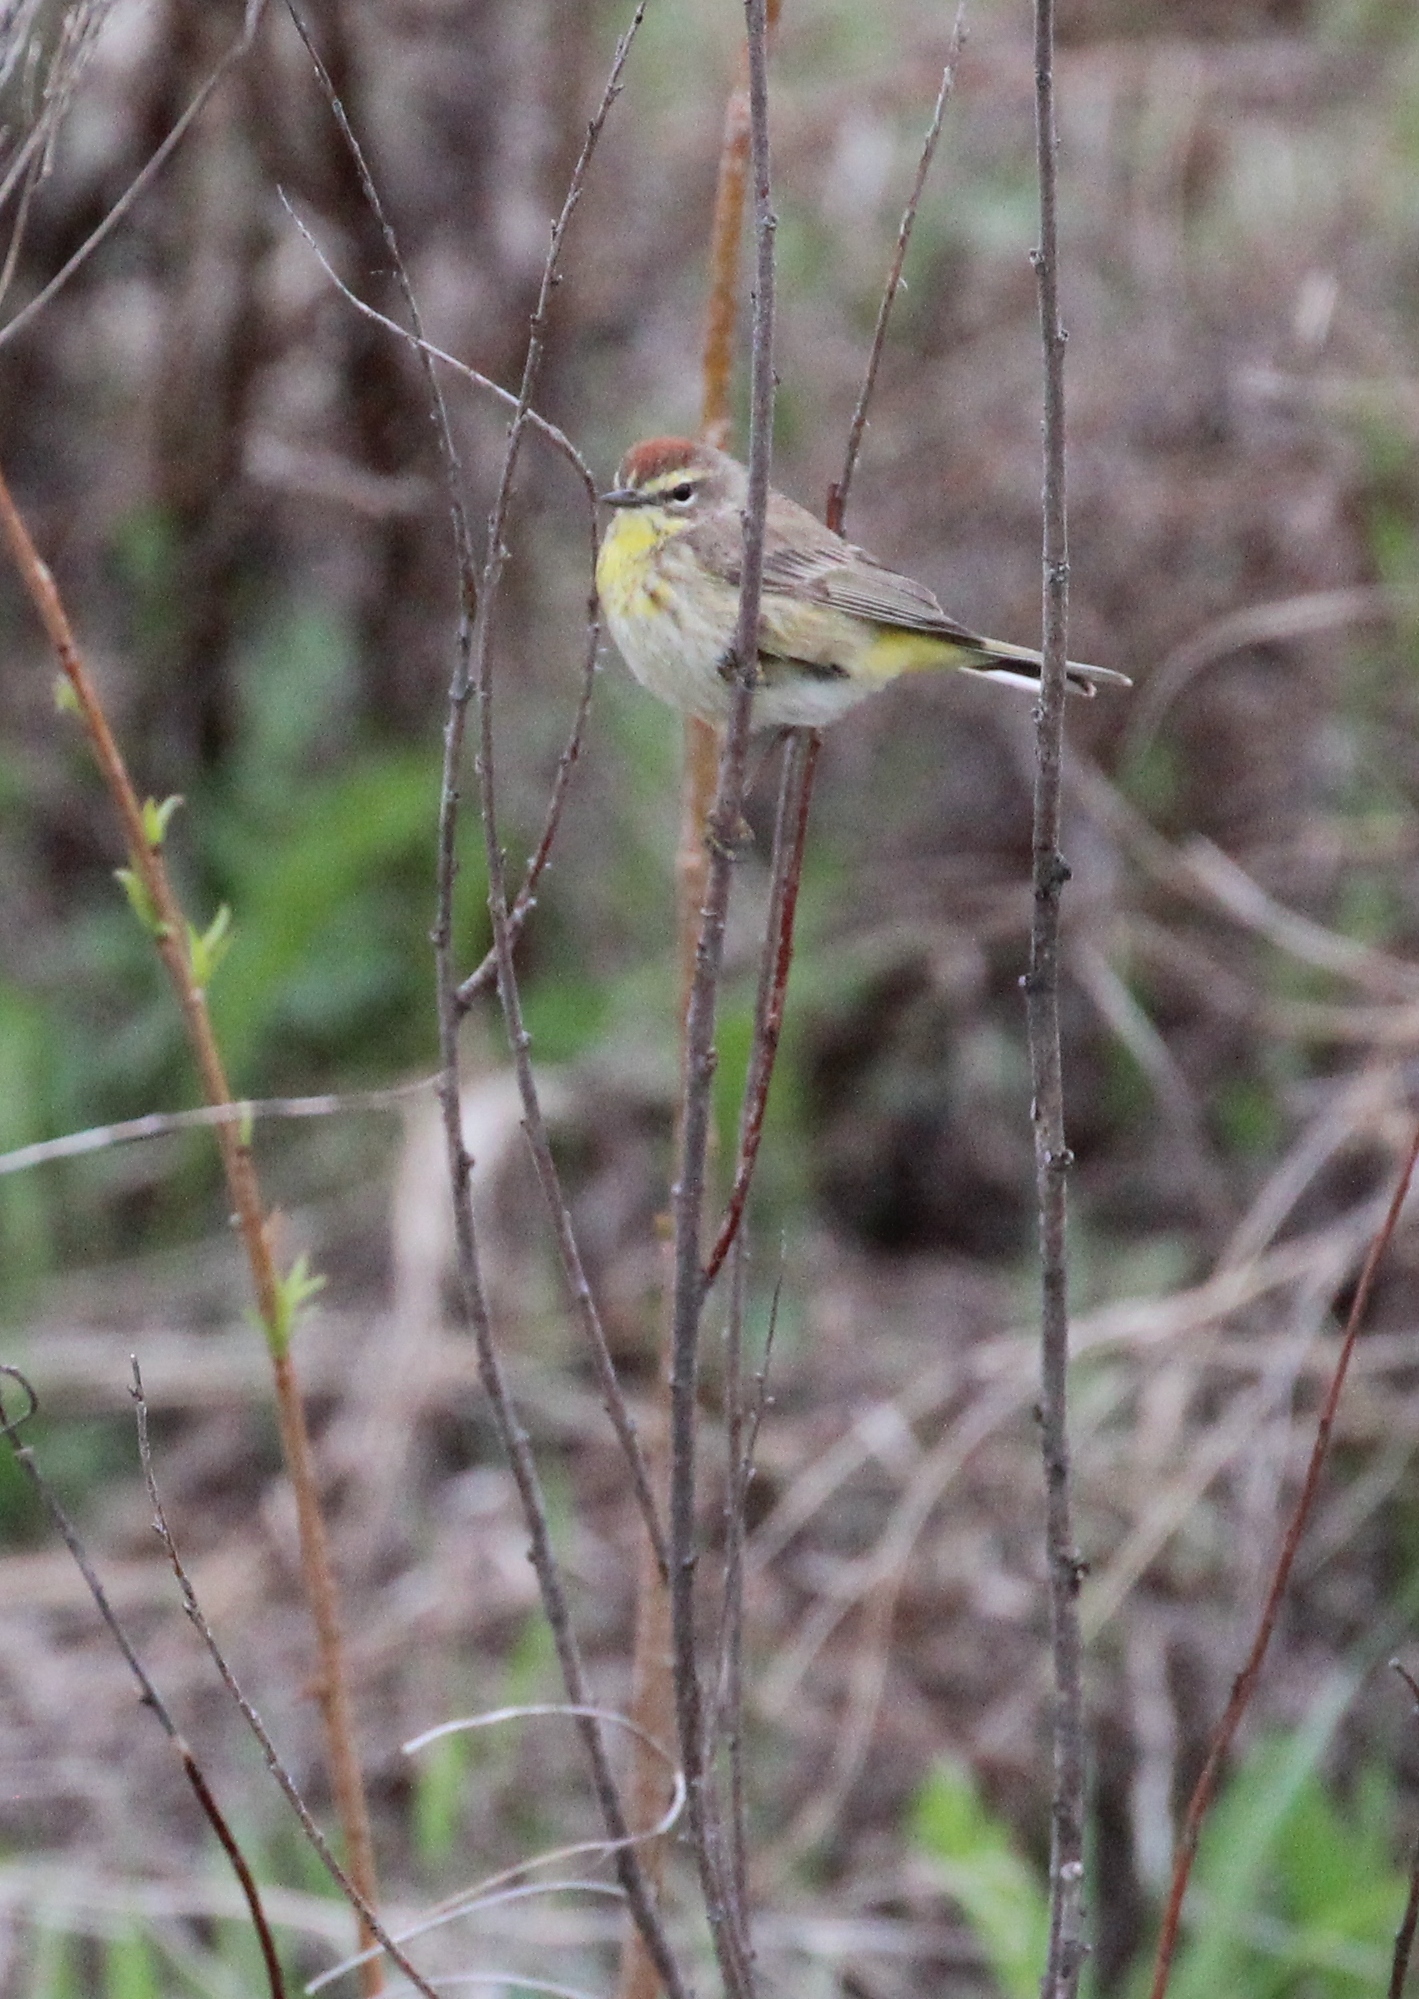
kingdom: Animalia
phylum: Chordata
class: Aves
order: Passeriformes
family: Parulidae
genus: Setophaga
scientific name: Setophaga palmarum
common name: Palm warbler
